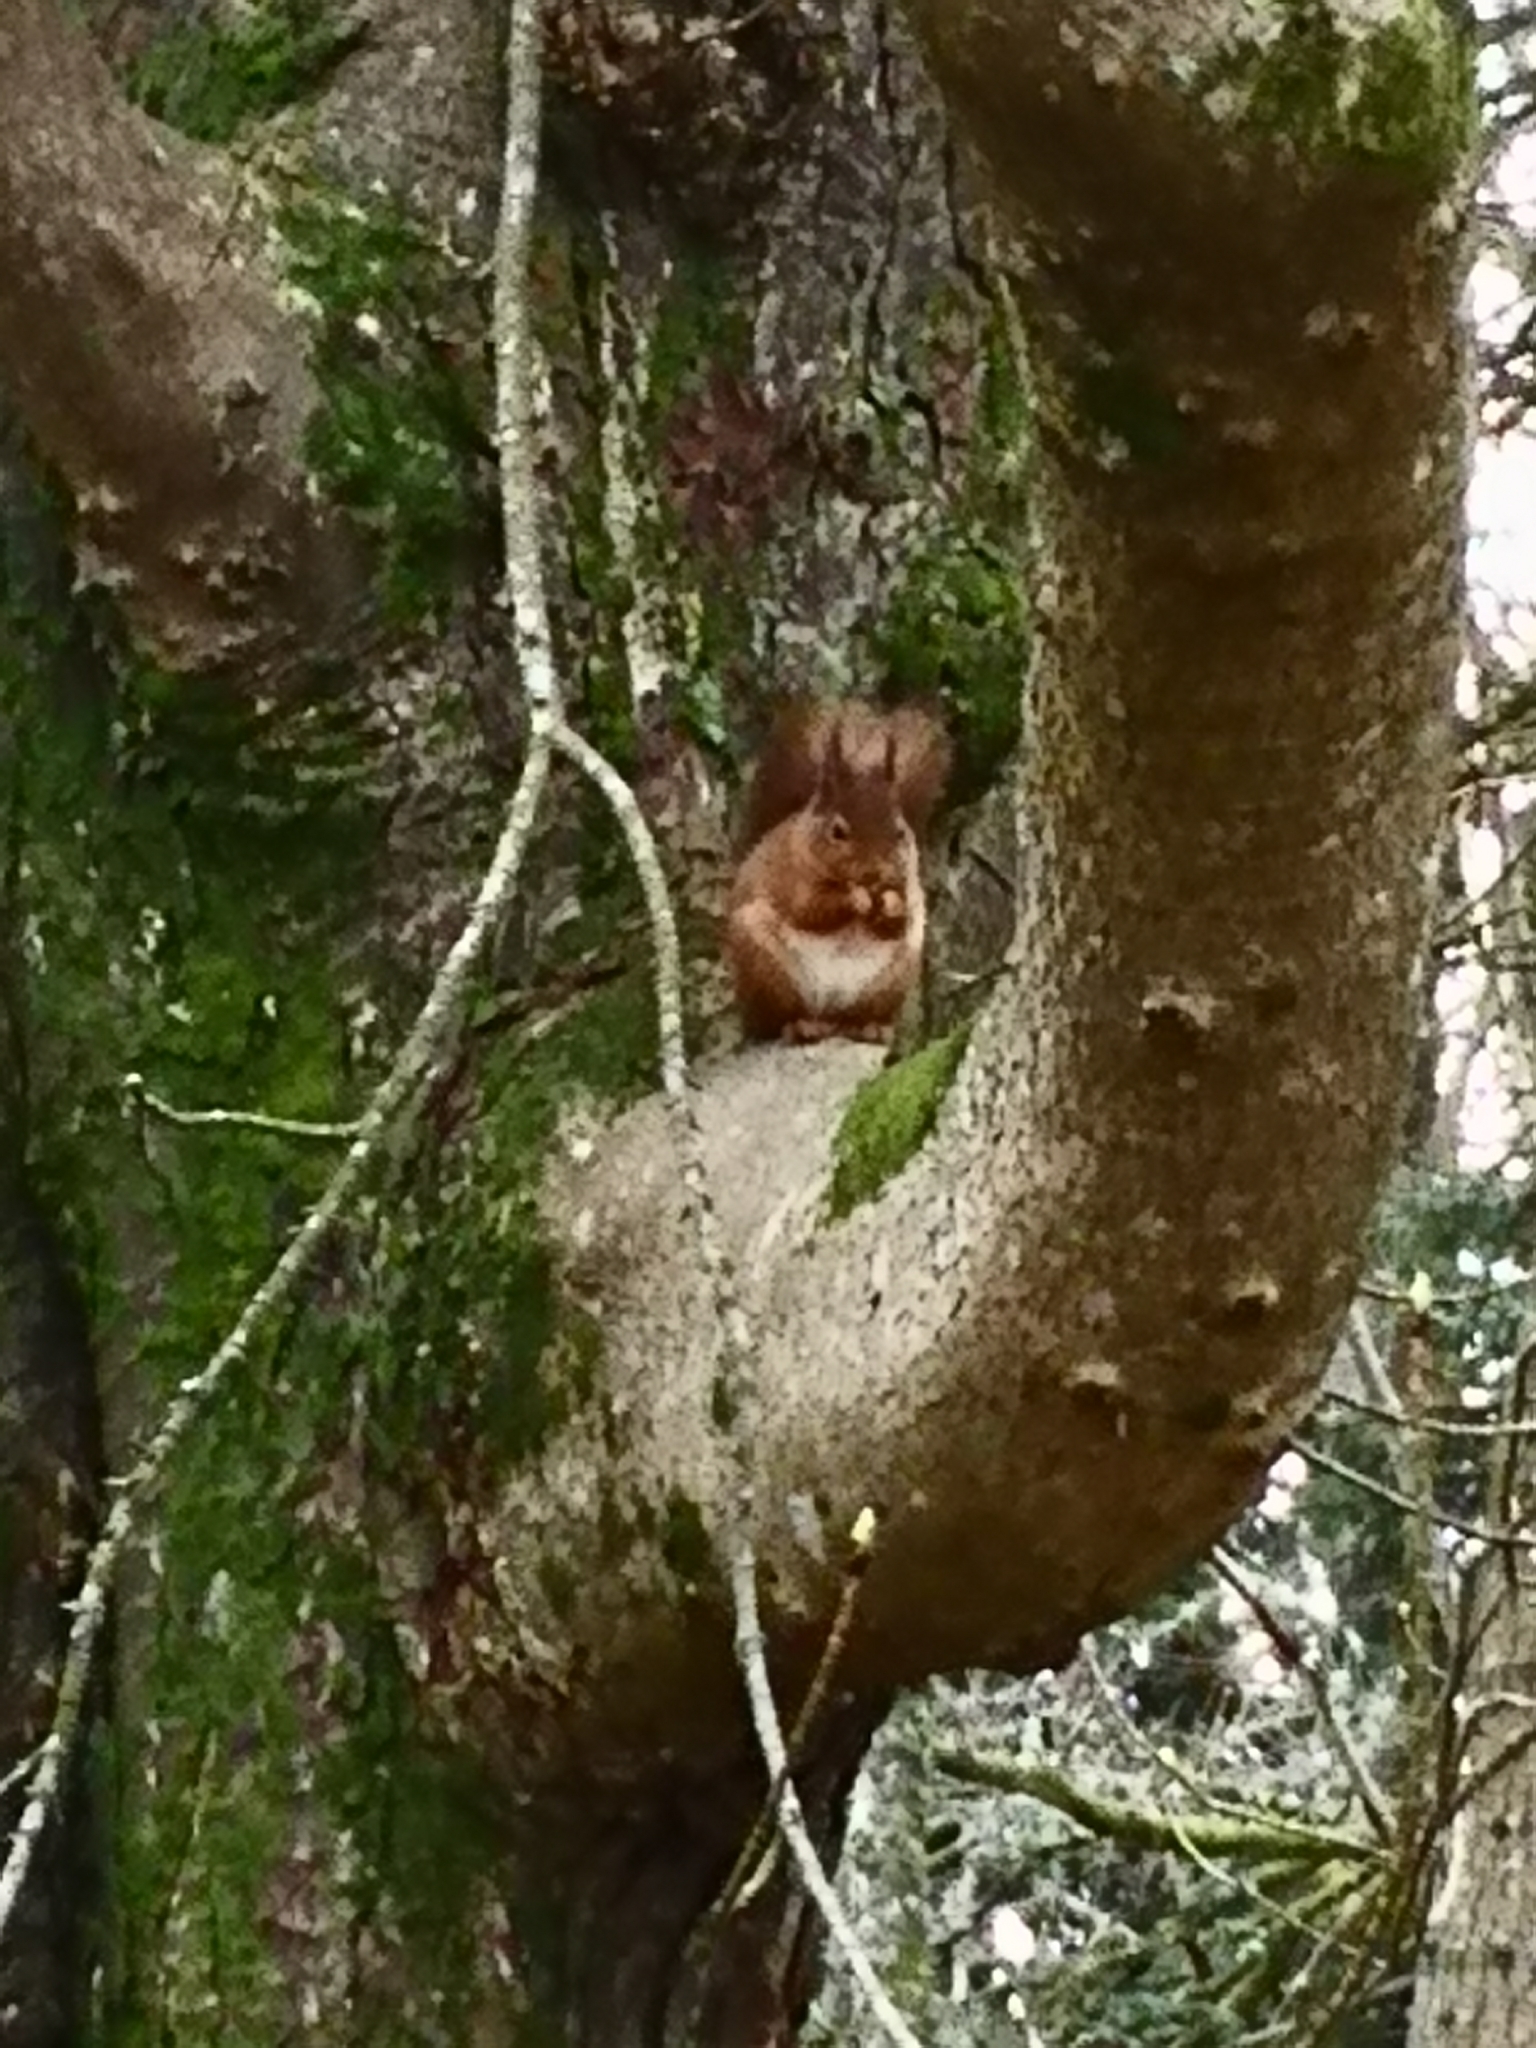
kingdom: Animalia
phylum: Chordata
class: Mammalia
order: Rodentia
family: Sciuridae
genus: Sciurus
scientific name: Sciurus vulgaris
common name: Eurasian red squirrel
